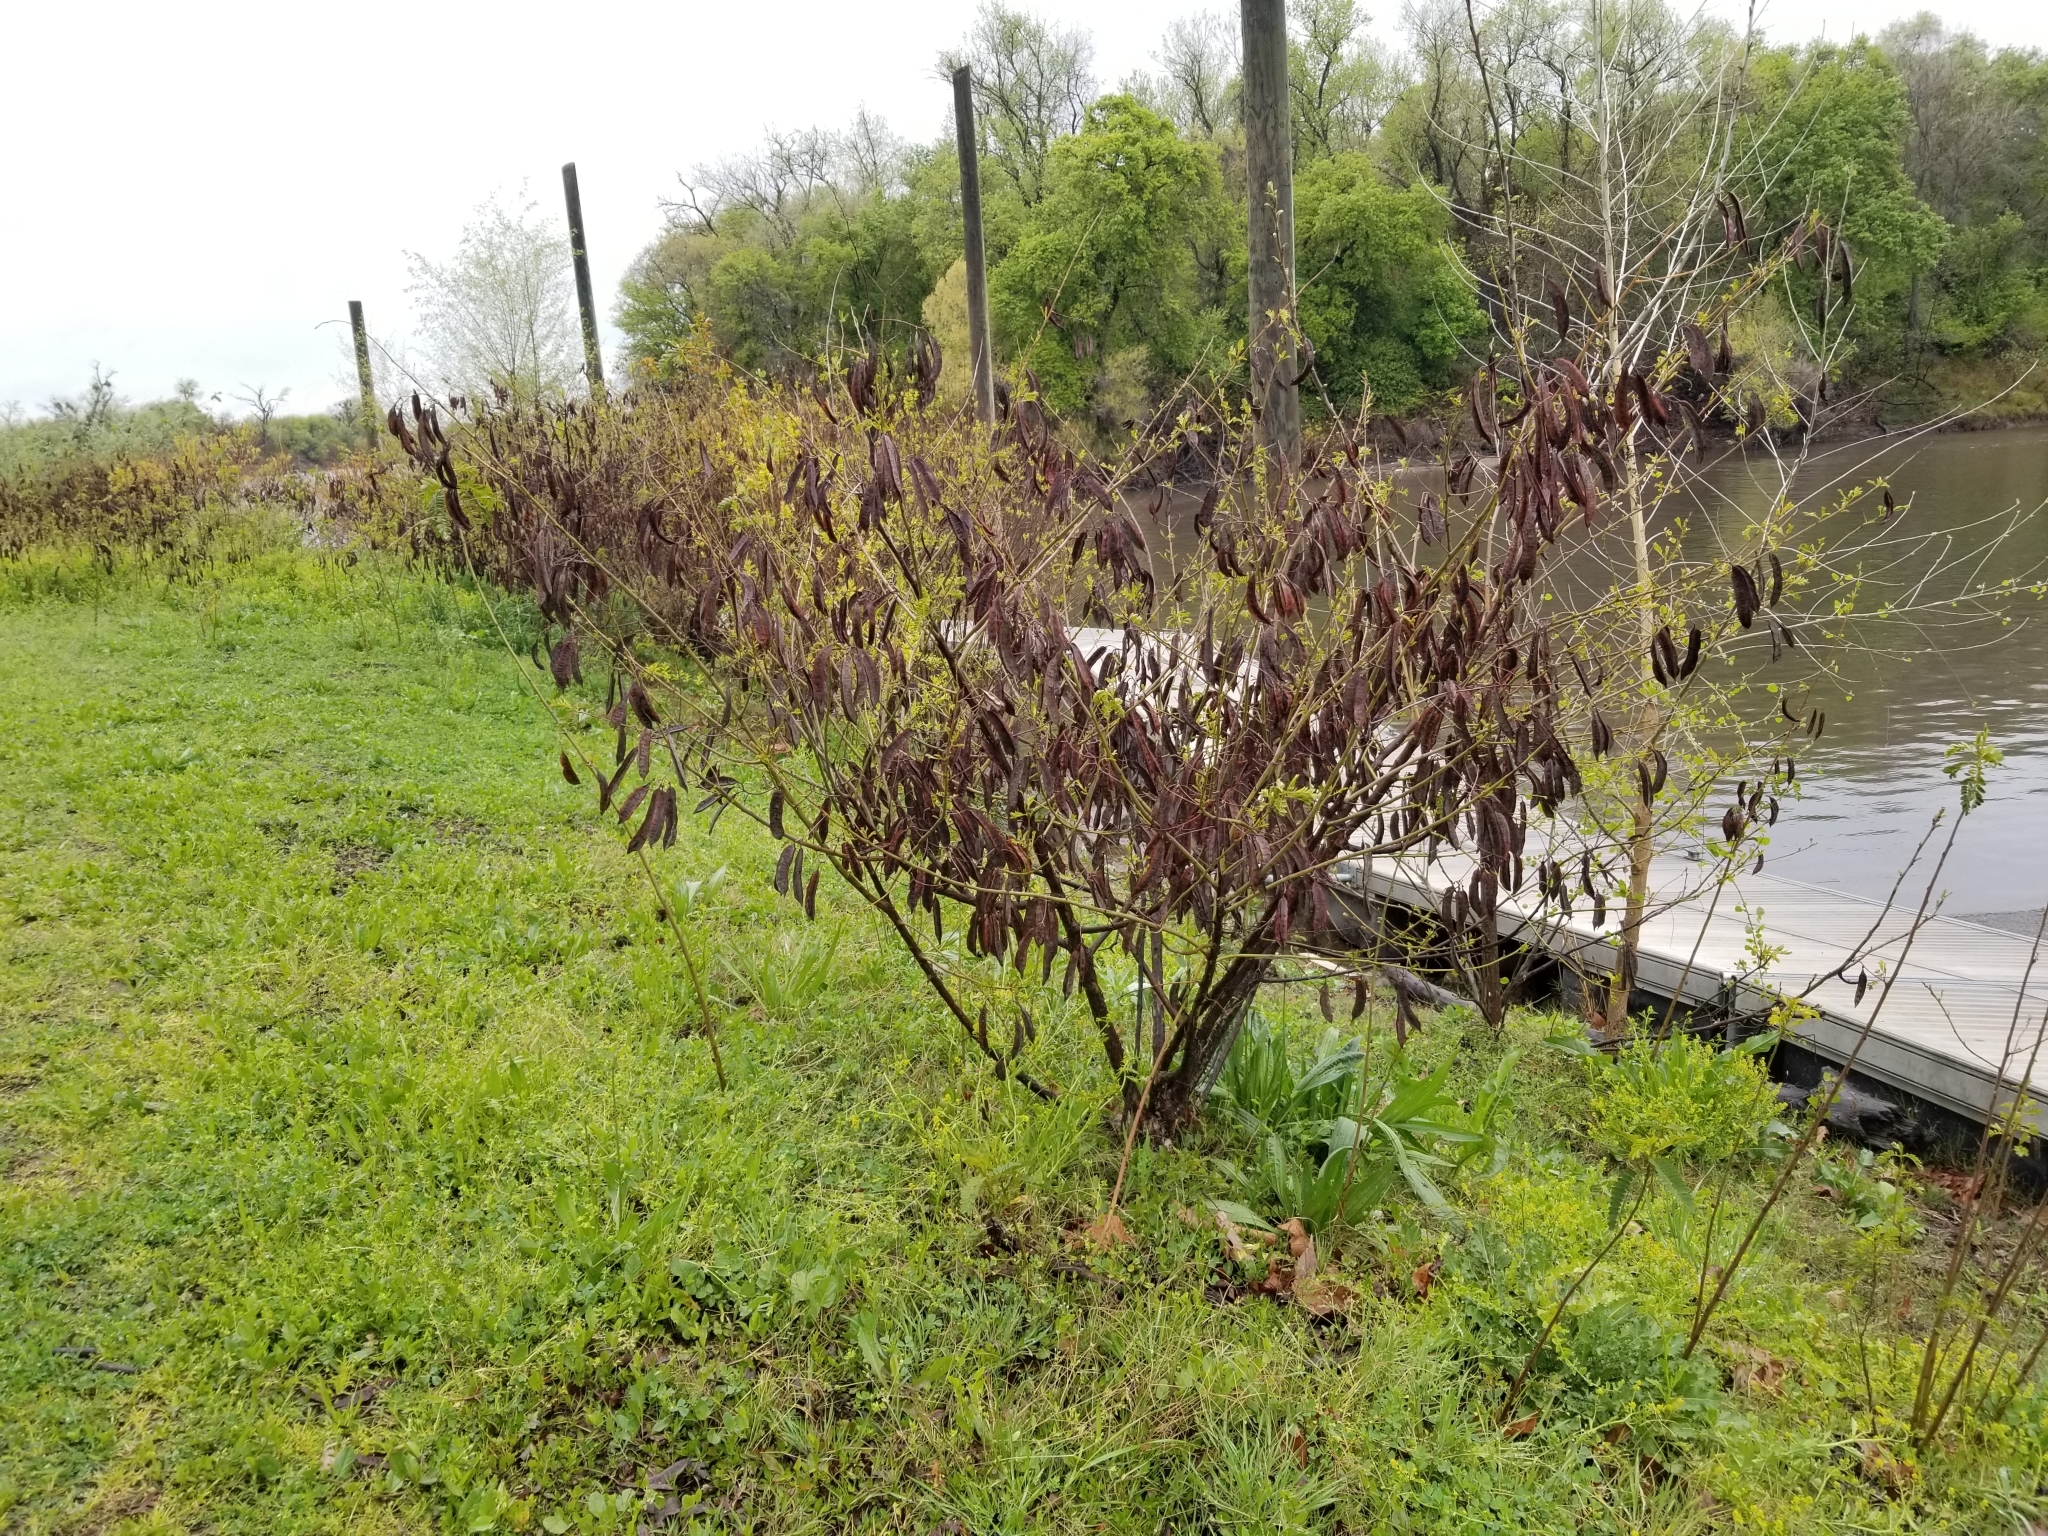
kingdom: Plantae
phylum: Tracheophyta
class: Magnoliopsida
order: Fabales
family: Fabaceae
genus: Sesbania
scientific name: Sesbania punicea
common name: Rattlebox
